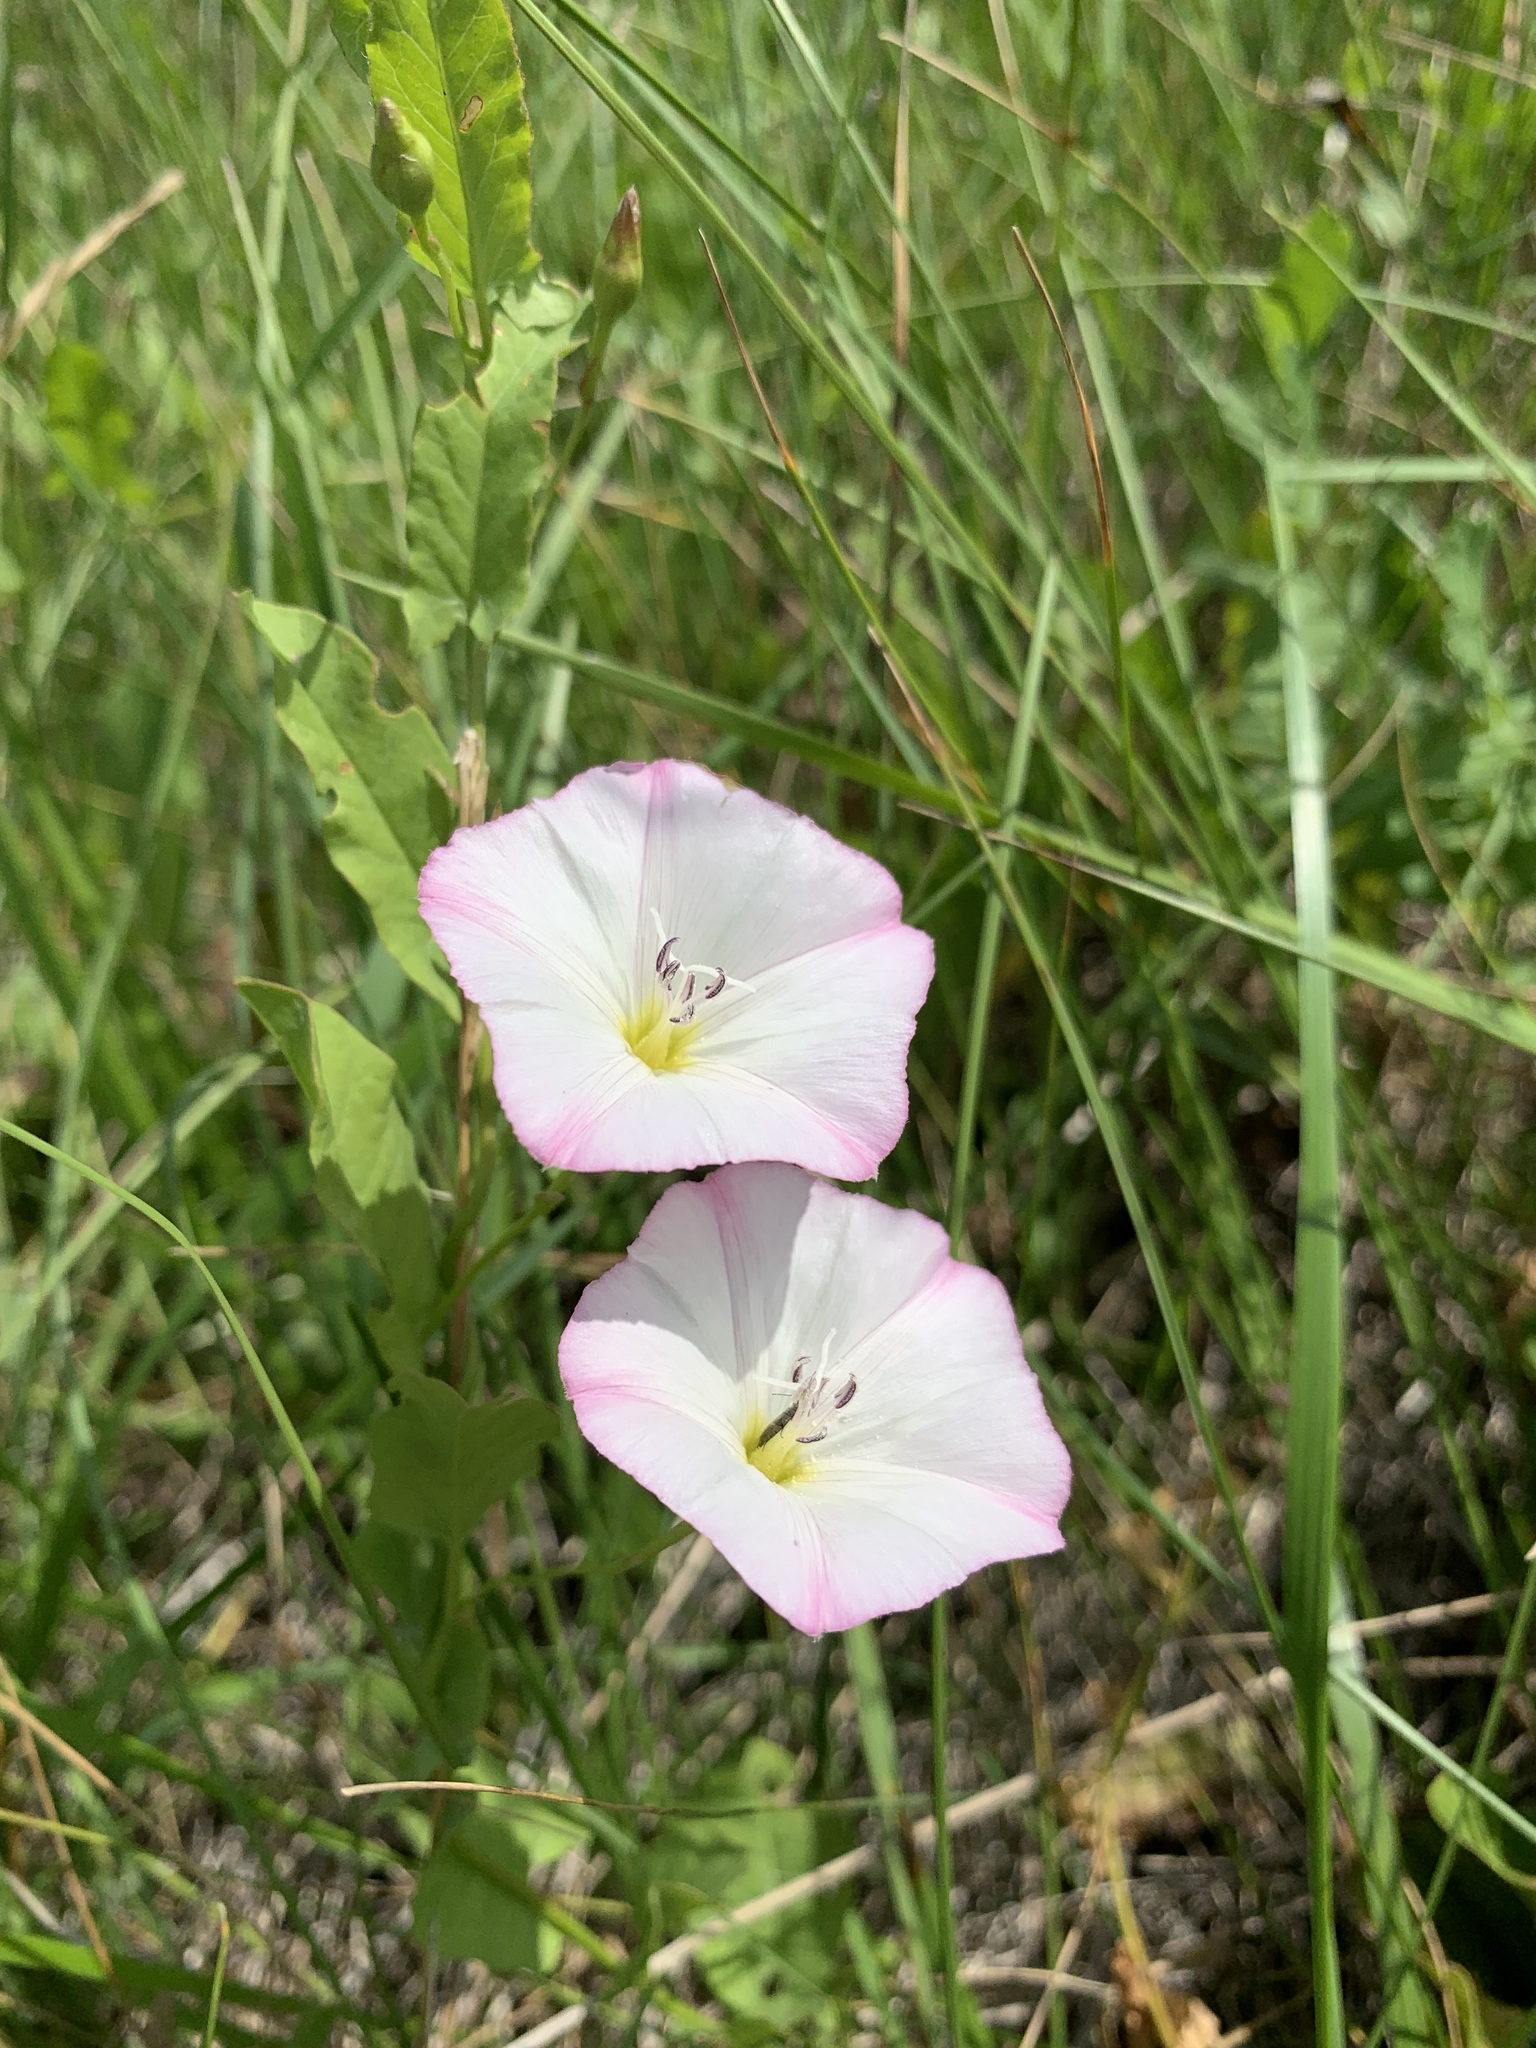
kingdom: Plantae
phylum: Tracheophyta
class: Magnoliopsida
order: Solanales
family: Convolvulaceae
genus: Convolvulus
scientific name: Convolvulus arvensis
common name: Field bindweed
